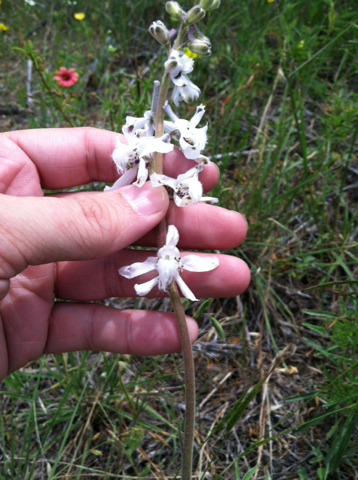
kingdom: Plantae
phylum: Tracheophyta
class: Magnoliopsida
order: Ranunculales
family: Ranunculaceae
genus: Delphinium
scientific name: Delphinium carolinianum
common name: Carolina larkspur
